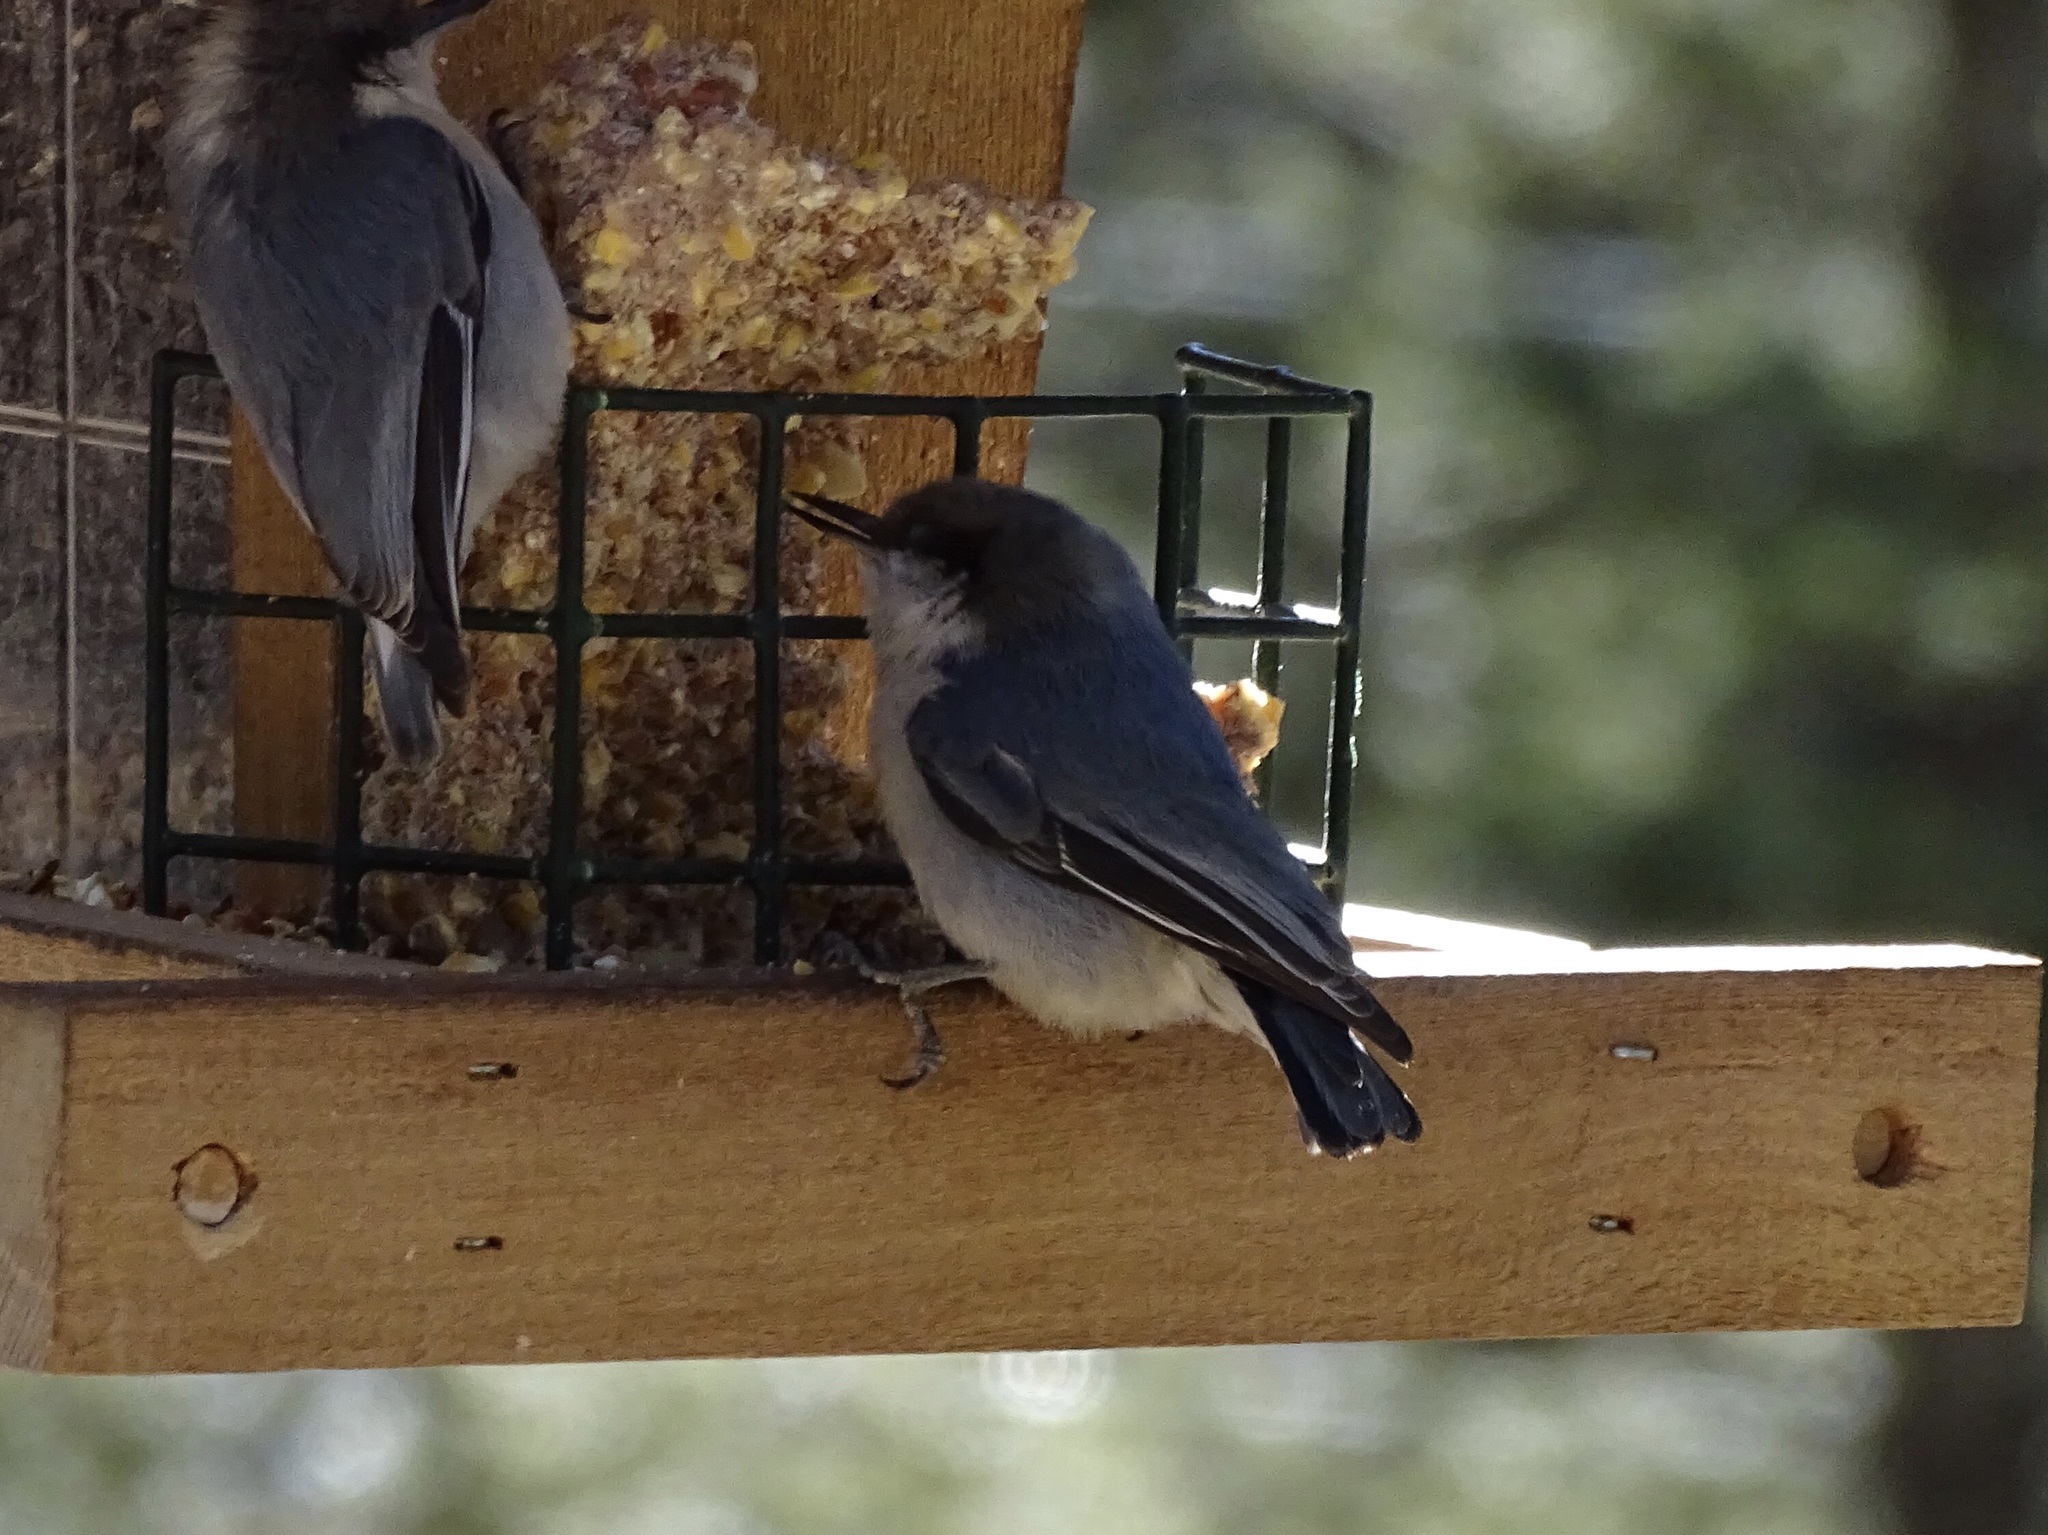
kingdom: Animalia
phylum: Chordata
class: Aves
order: Passeriformes
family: Sittidae
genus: Sitta
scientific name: Sitta pygmaea
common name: Pygmy nuthatch
